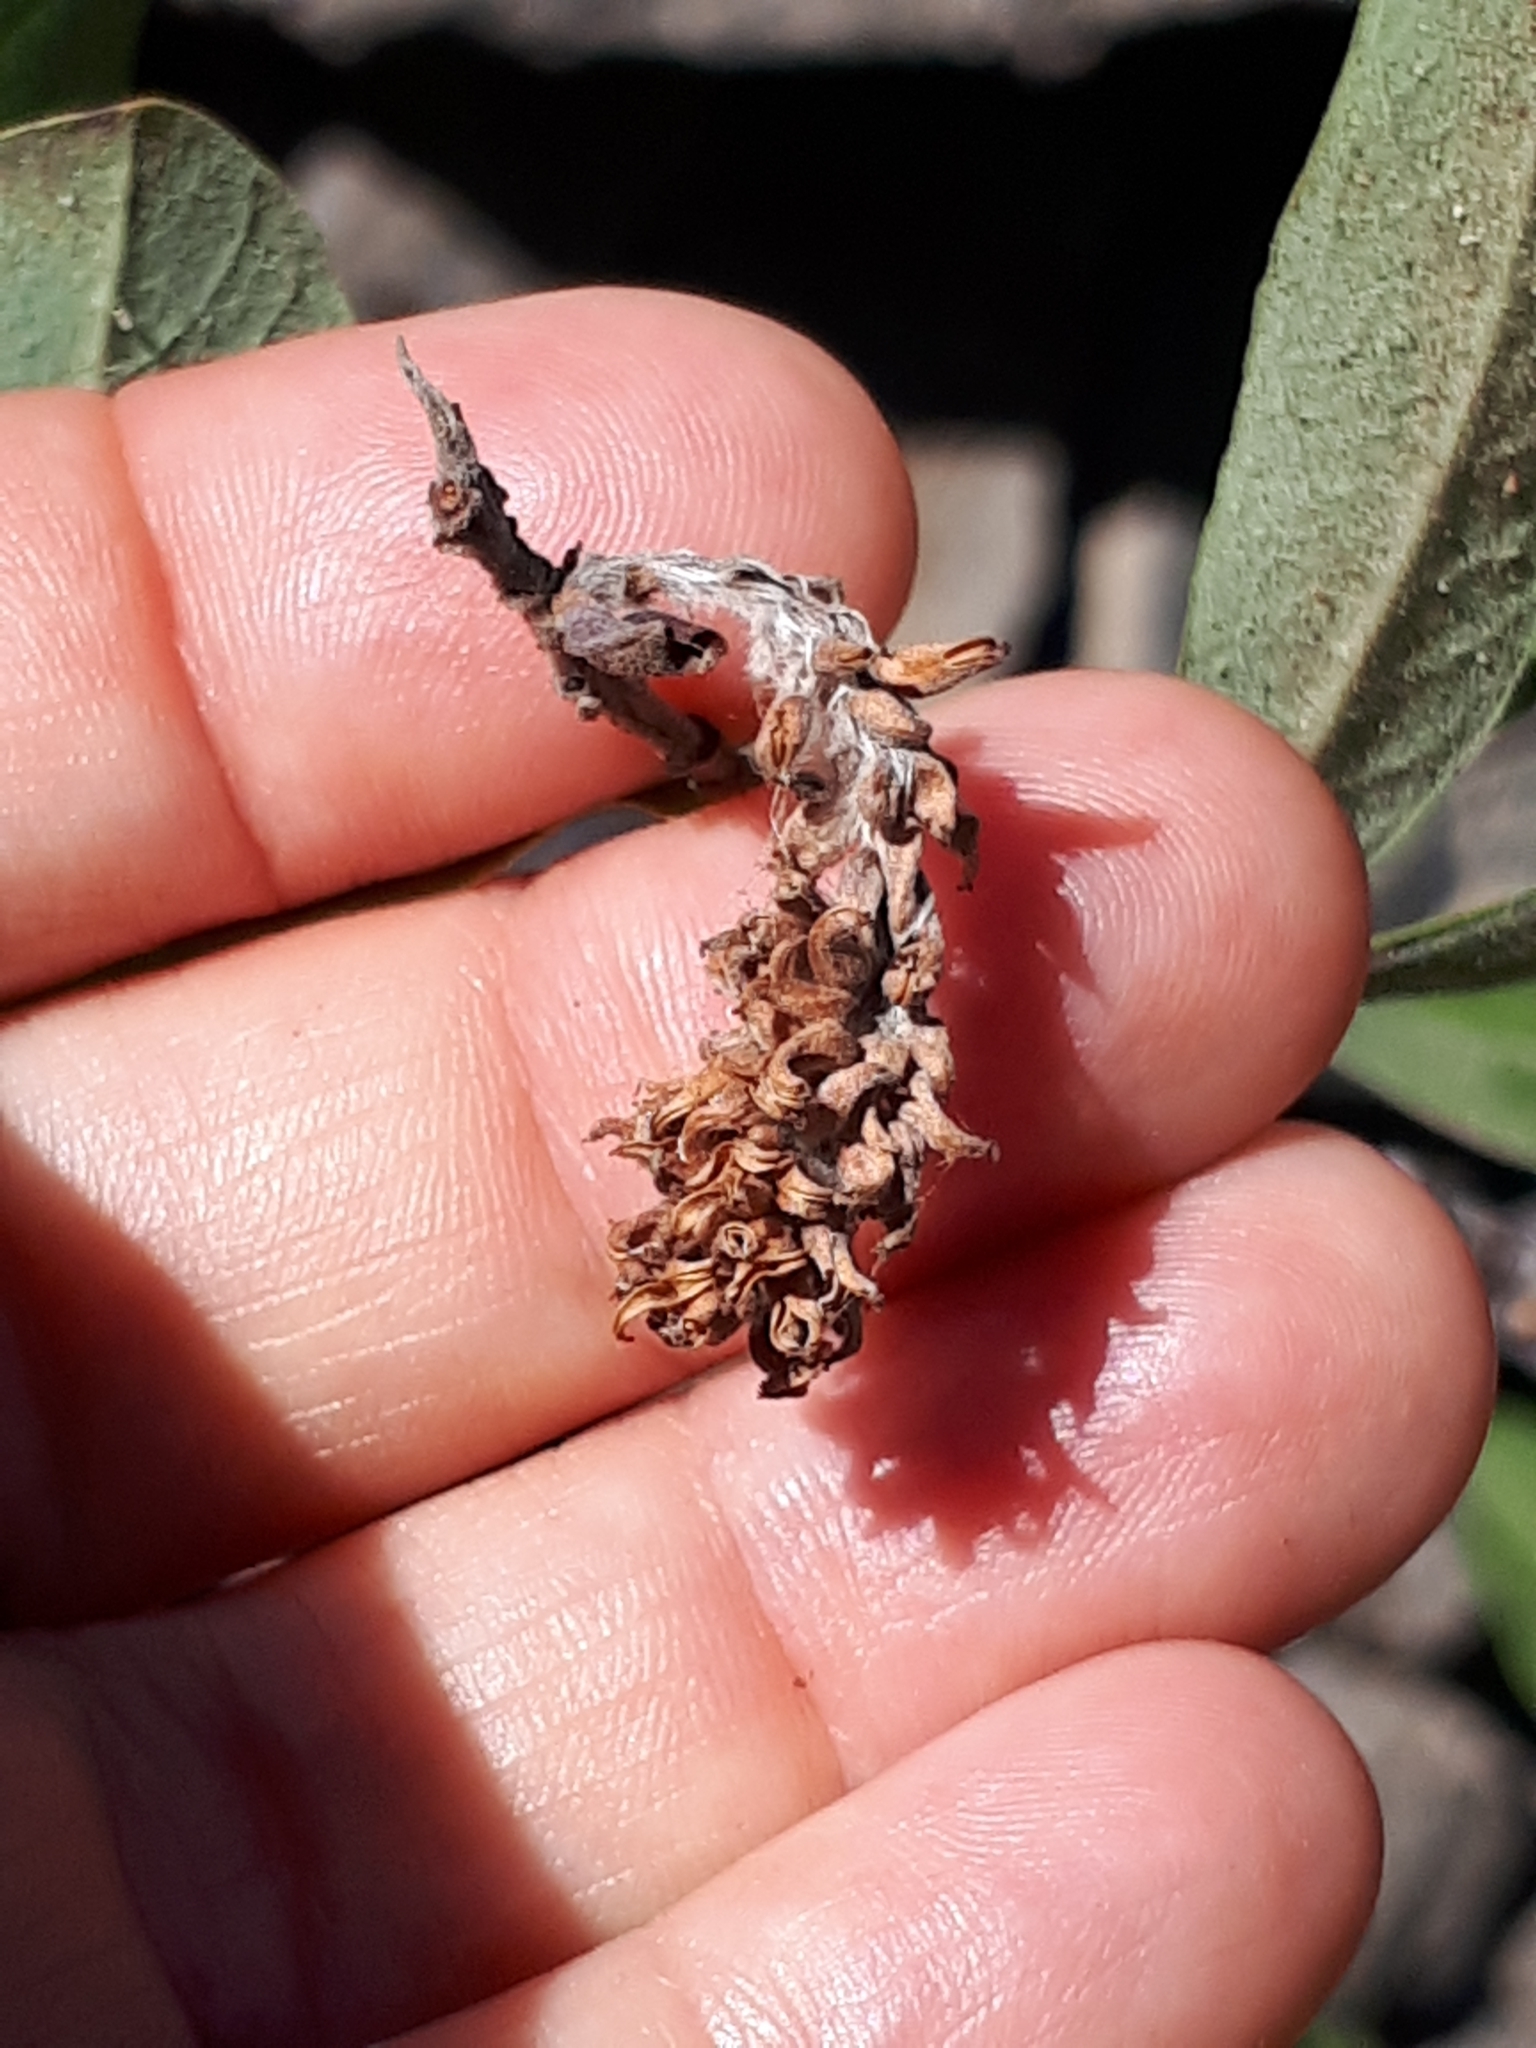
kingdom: Plantae
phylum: Tracheophyta
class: Magnoliopsida
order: Malpighiales
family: Salicaceae
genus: Salix
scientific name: Salix canariensis
